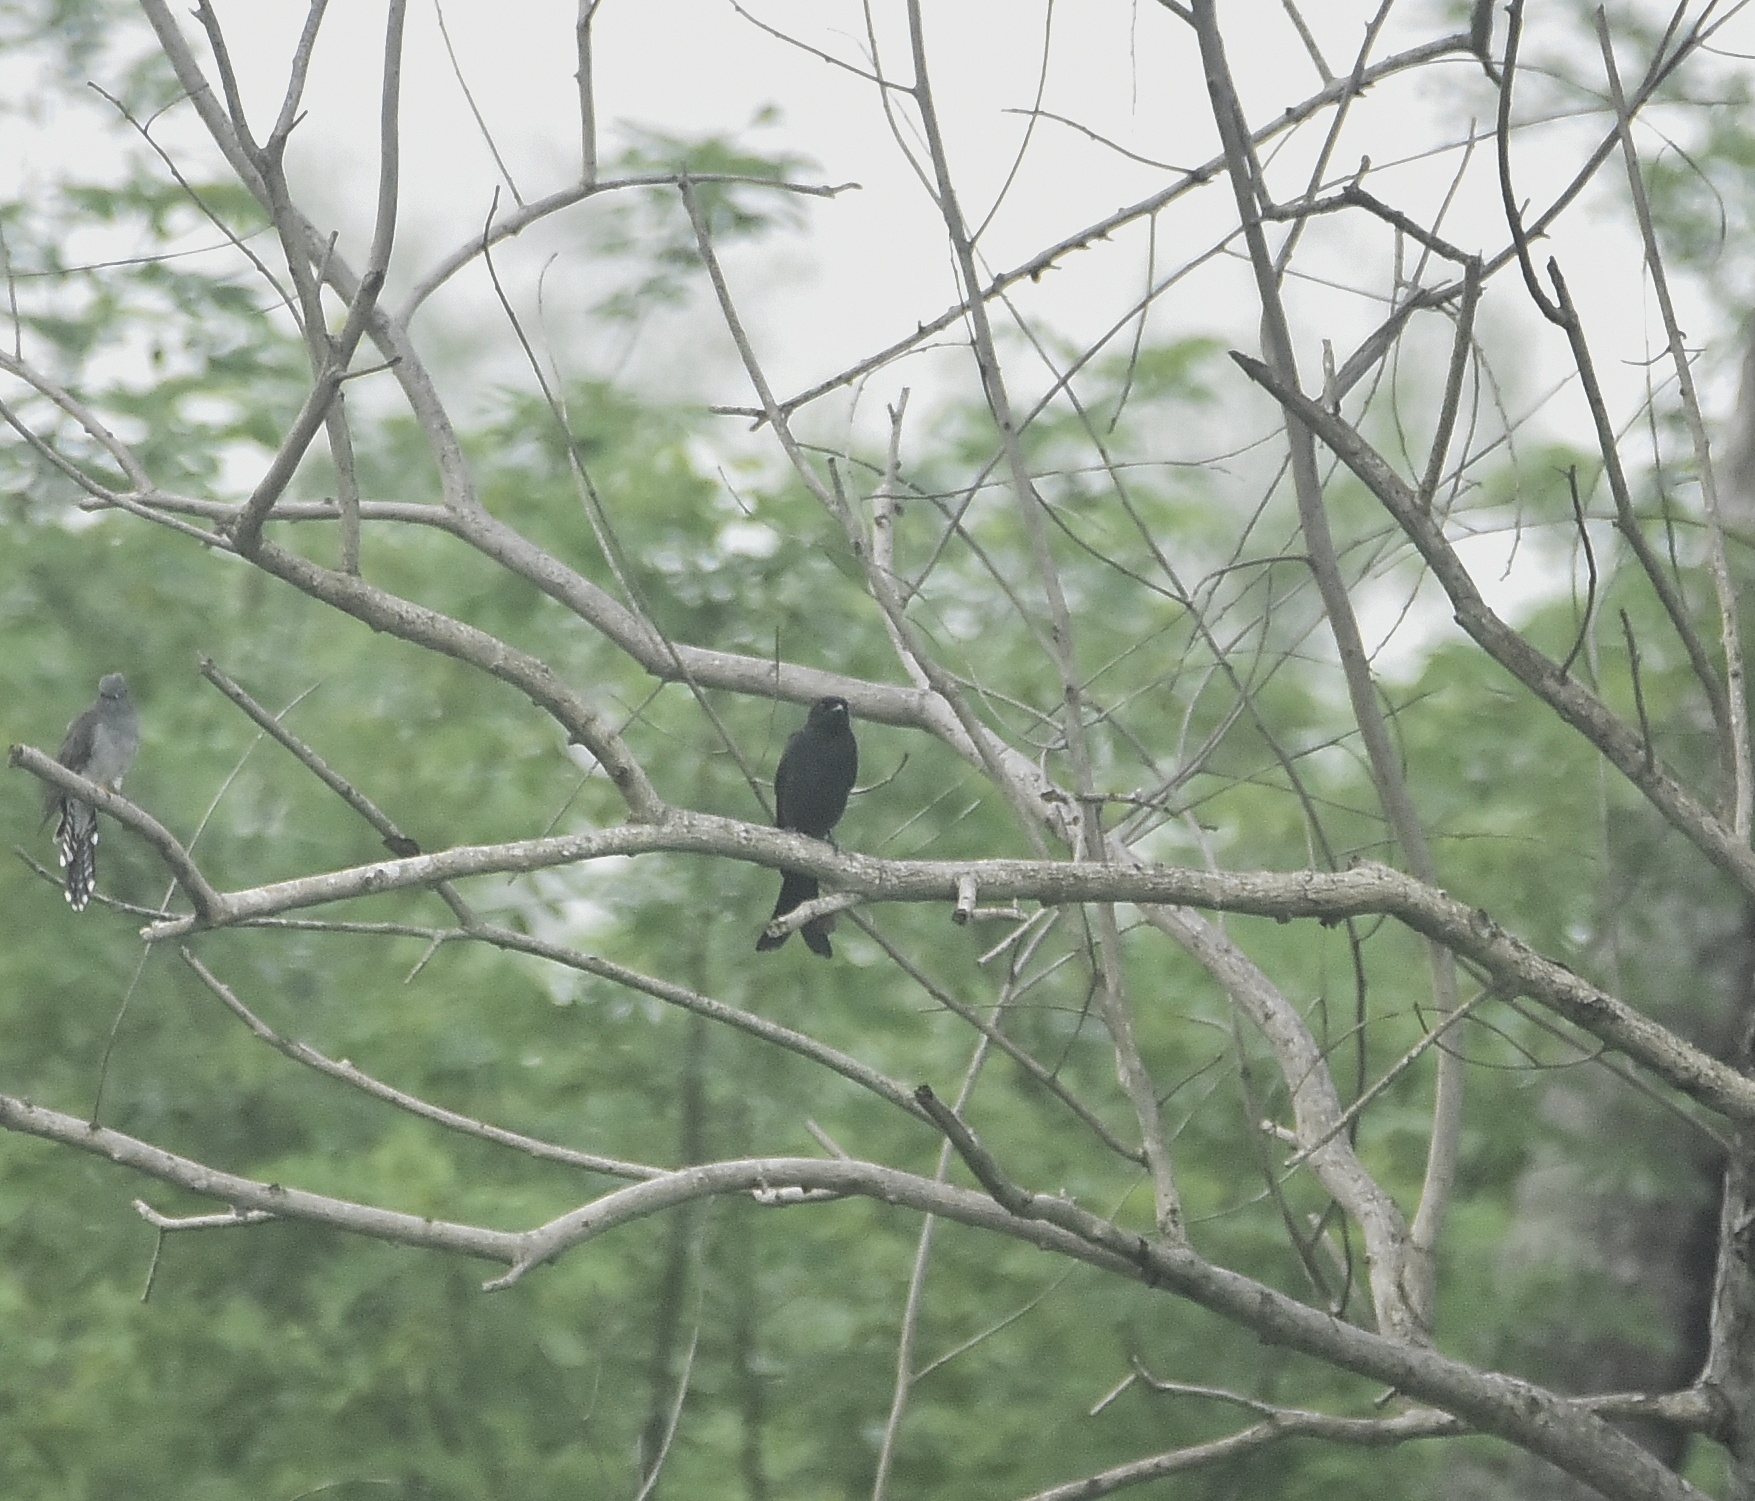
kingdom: Animalia
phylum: Chordata
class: Aves
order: Passeriformes
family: Dicruridae
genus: Dicrurus
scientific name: Dicrurus macrocercus
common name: Black drongo
